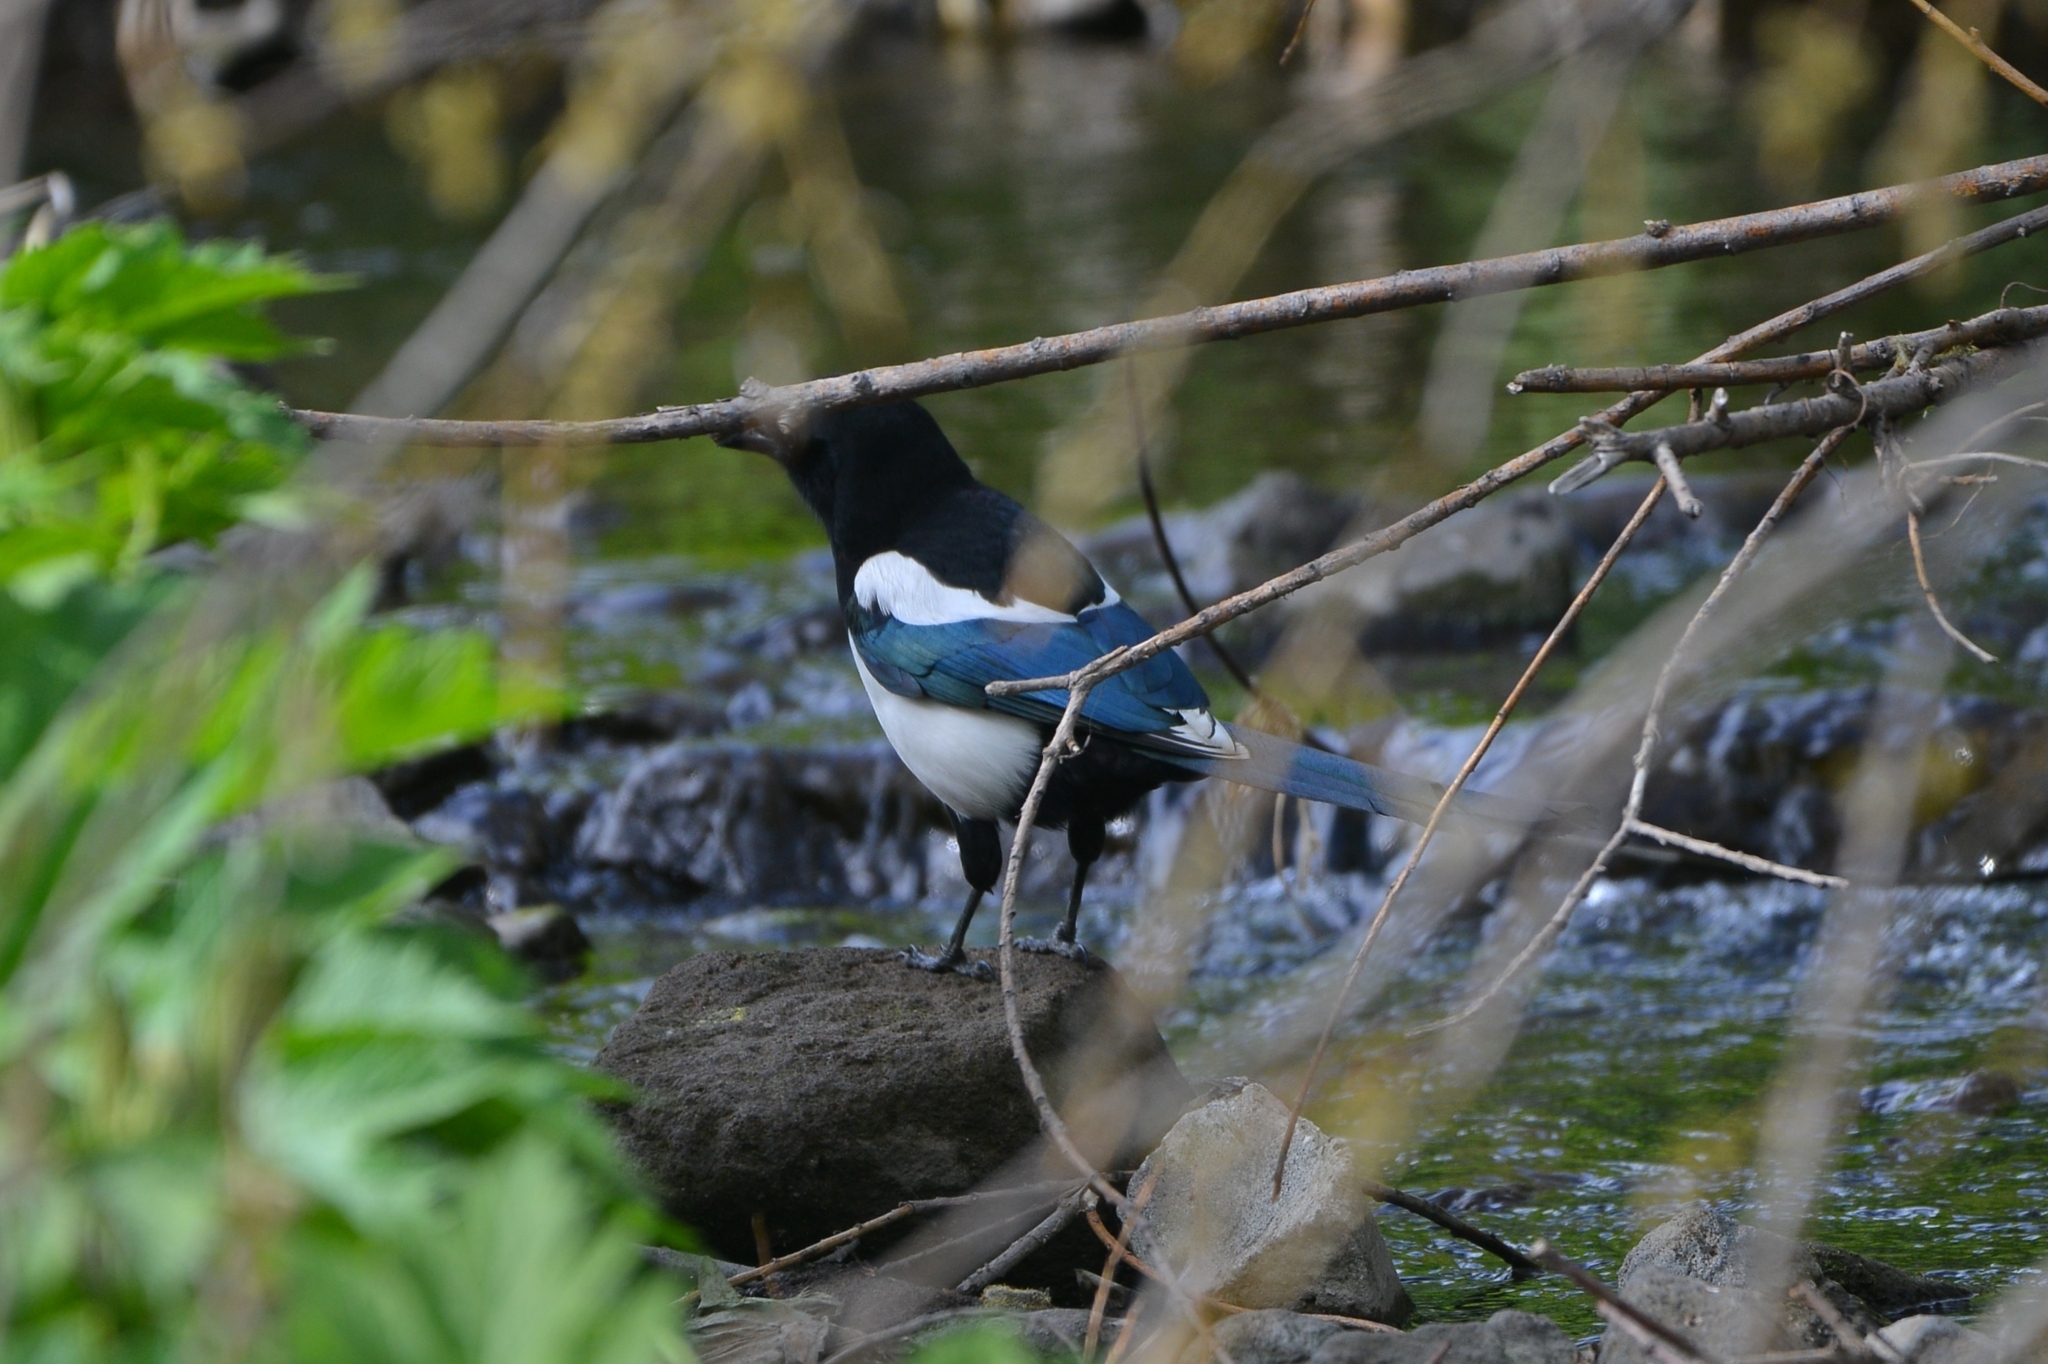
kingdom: Animalia
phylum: Chordata
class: Aves
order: Passeriformes
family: Corvidae
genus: Pica
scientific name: Pica pica
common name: Eurasian magpie
